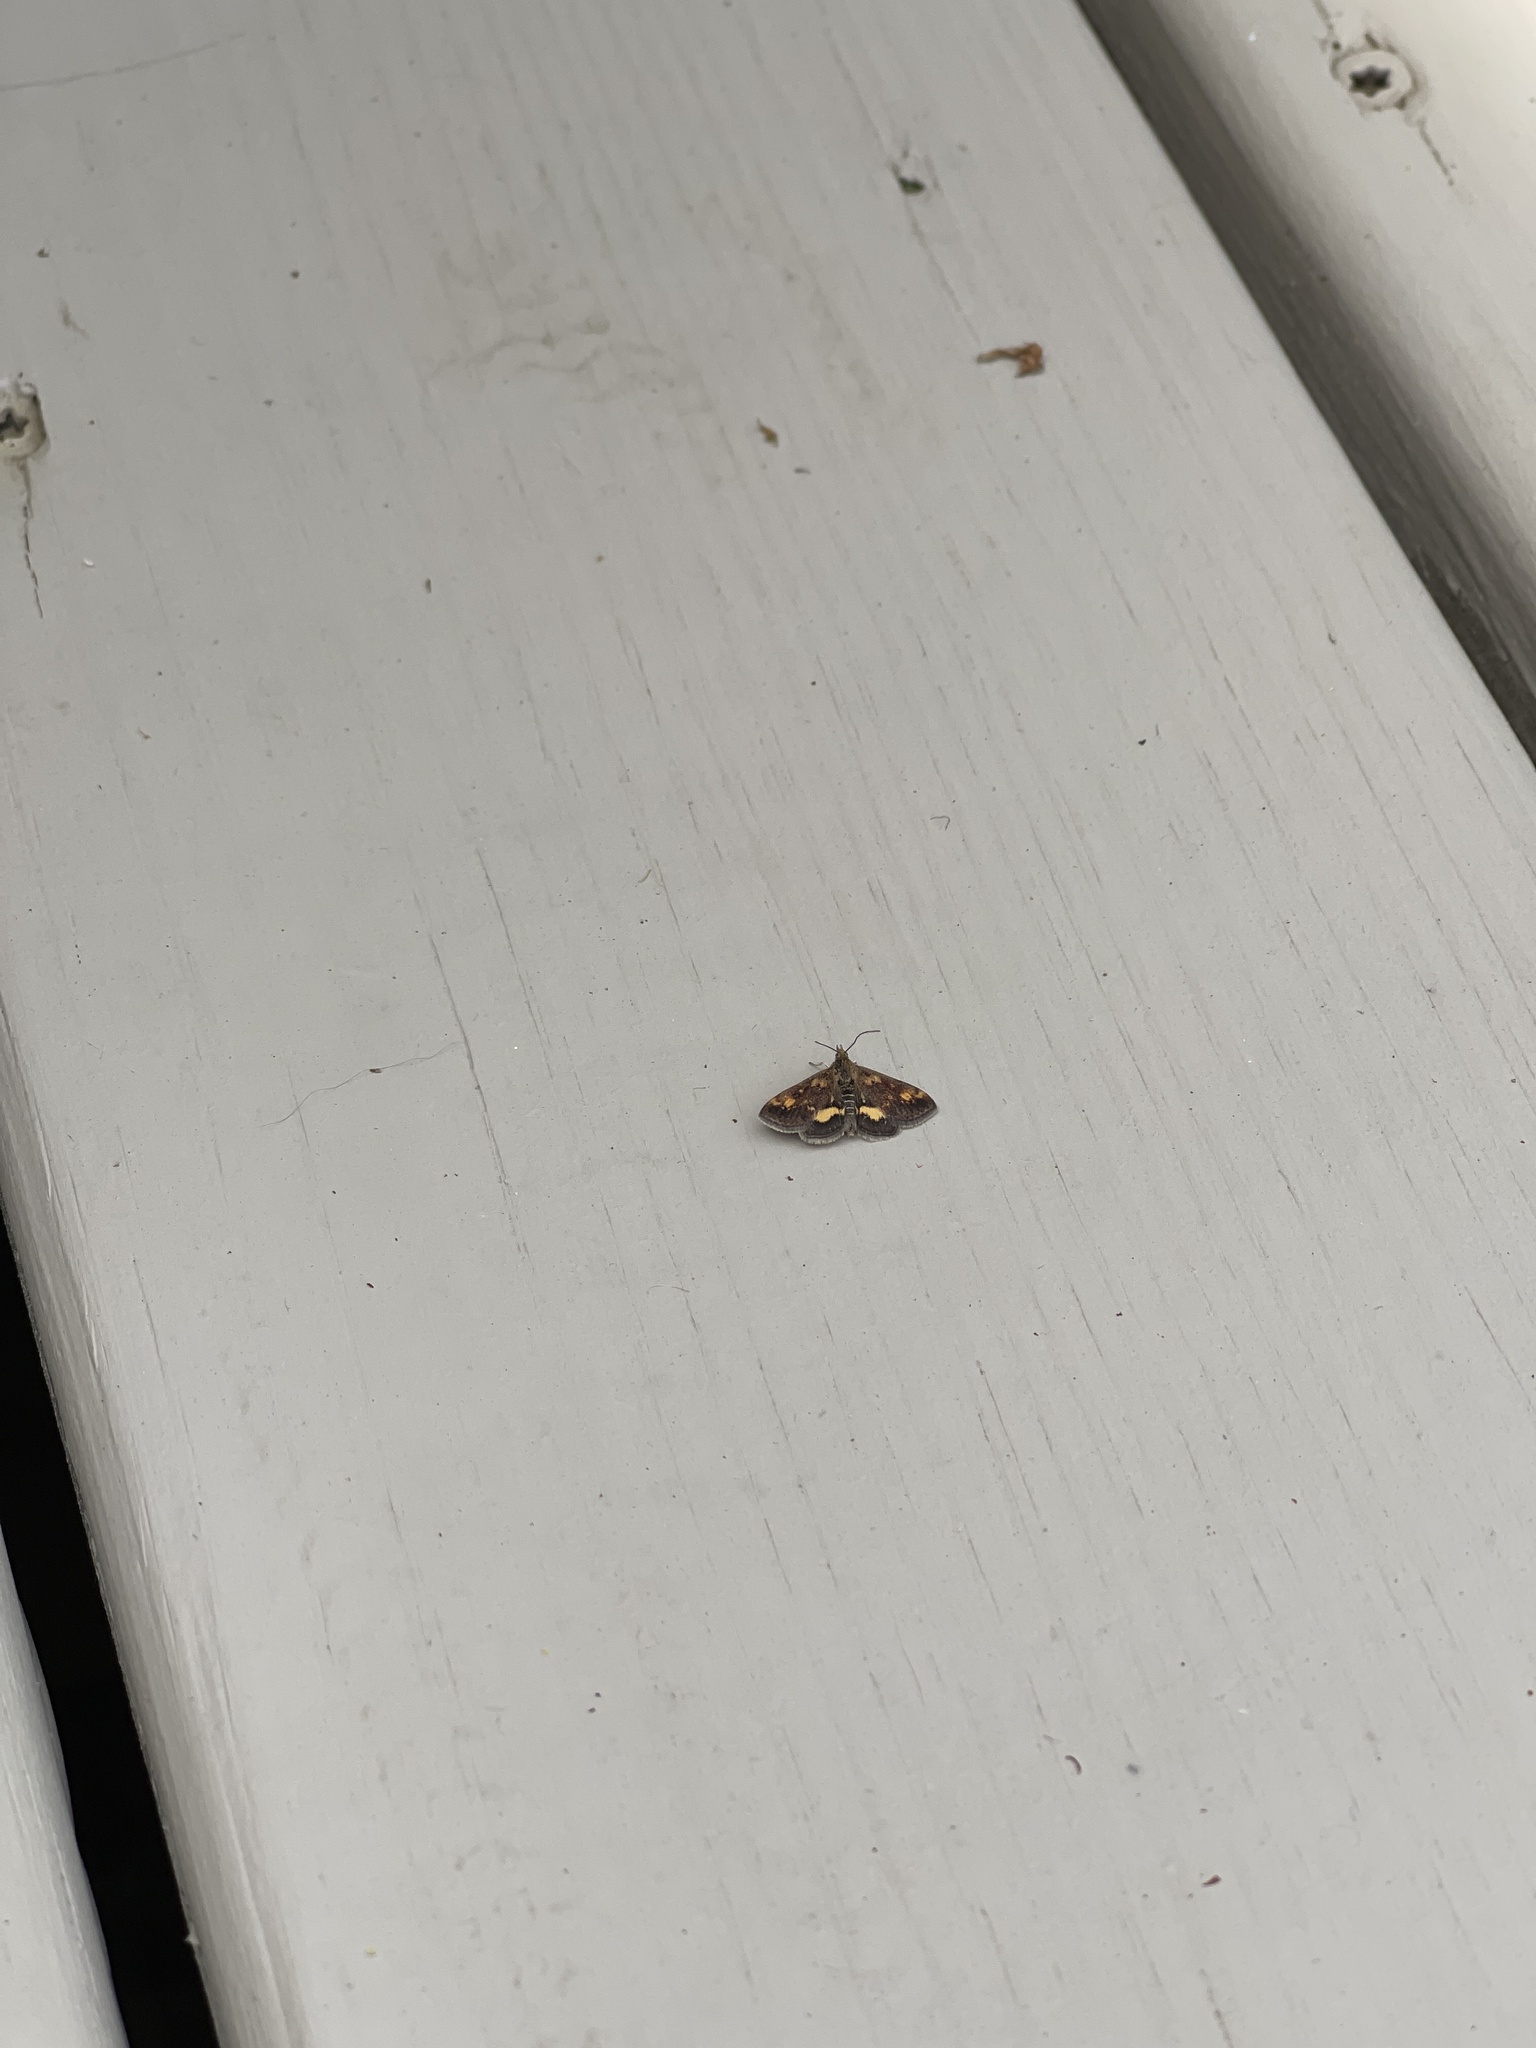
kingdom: Animalia
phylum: Arthropoda
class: Insecta
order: Lepidoptera
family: Crambidae
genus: Pyrausta
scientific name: Pyrausta orphisalis
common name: Orange mint moth
